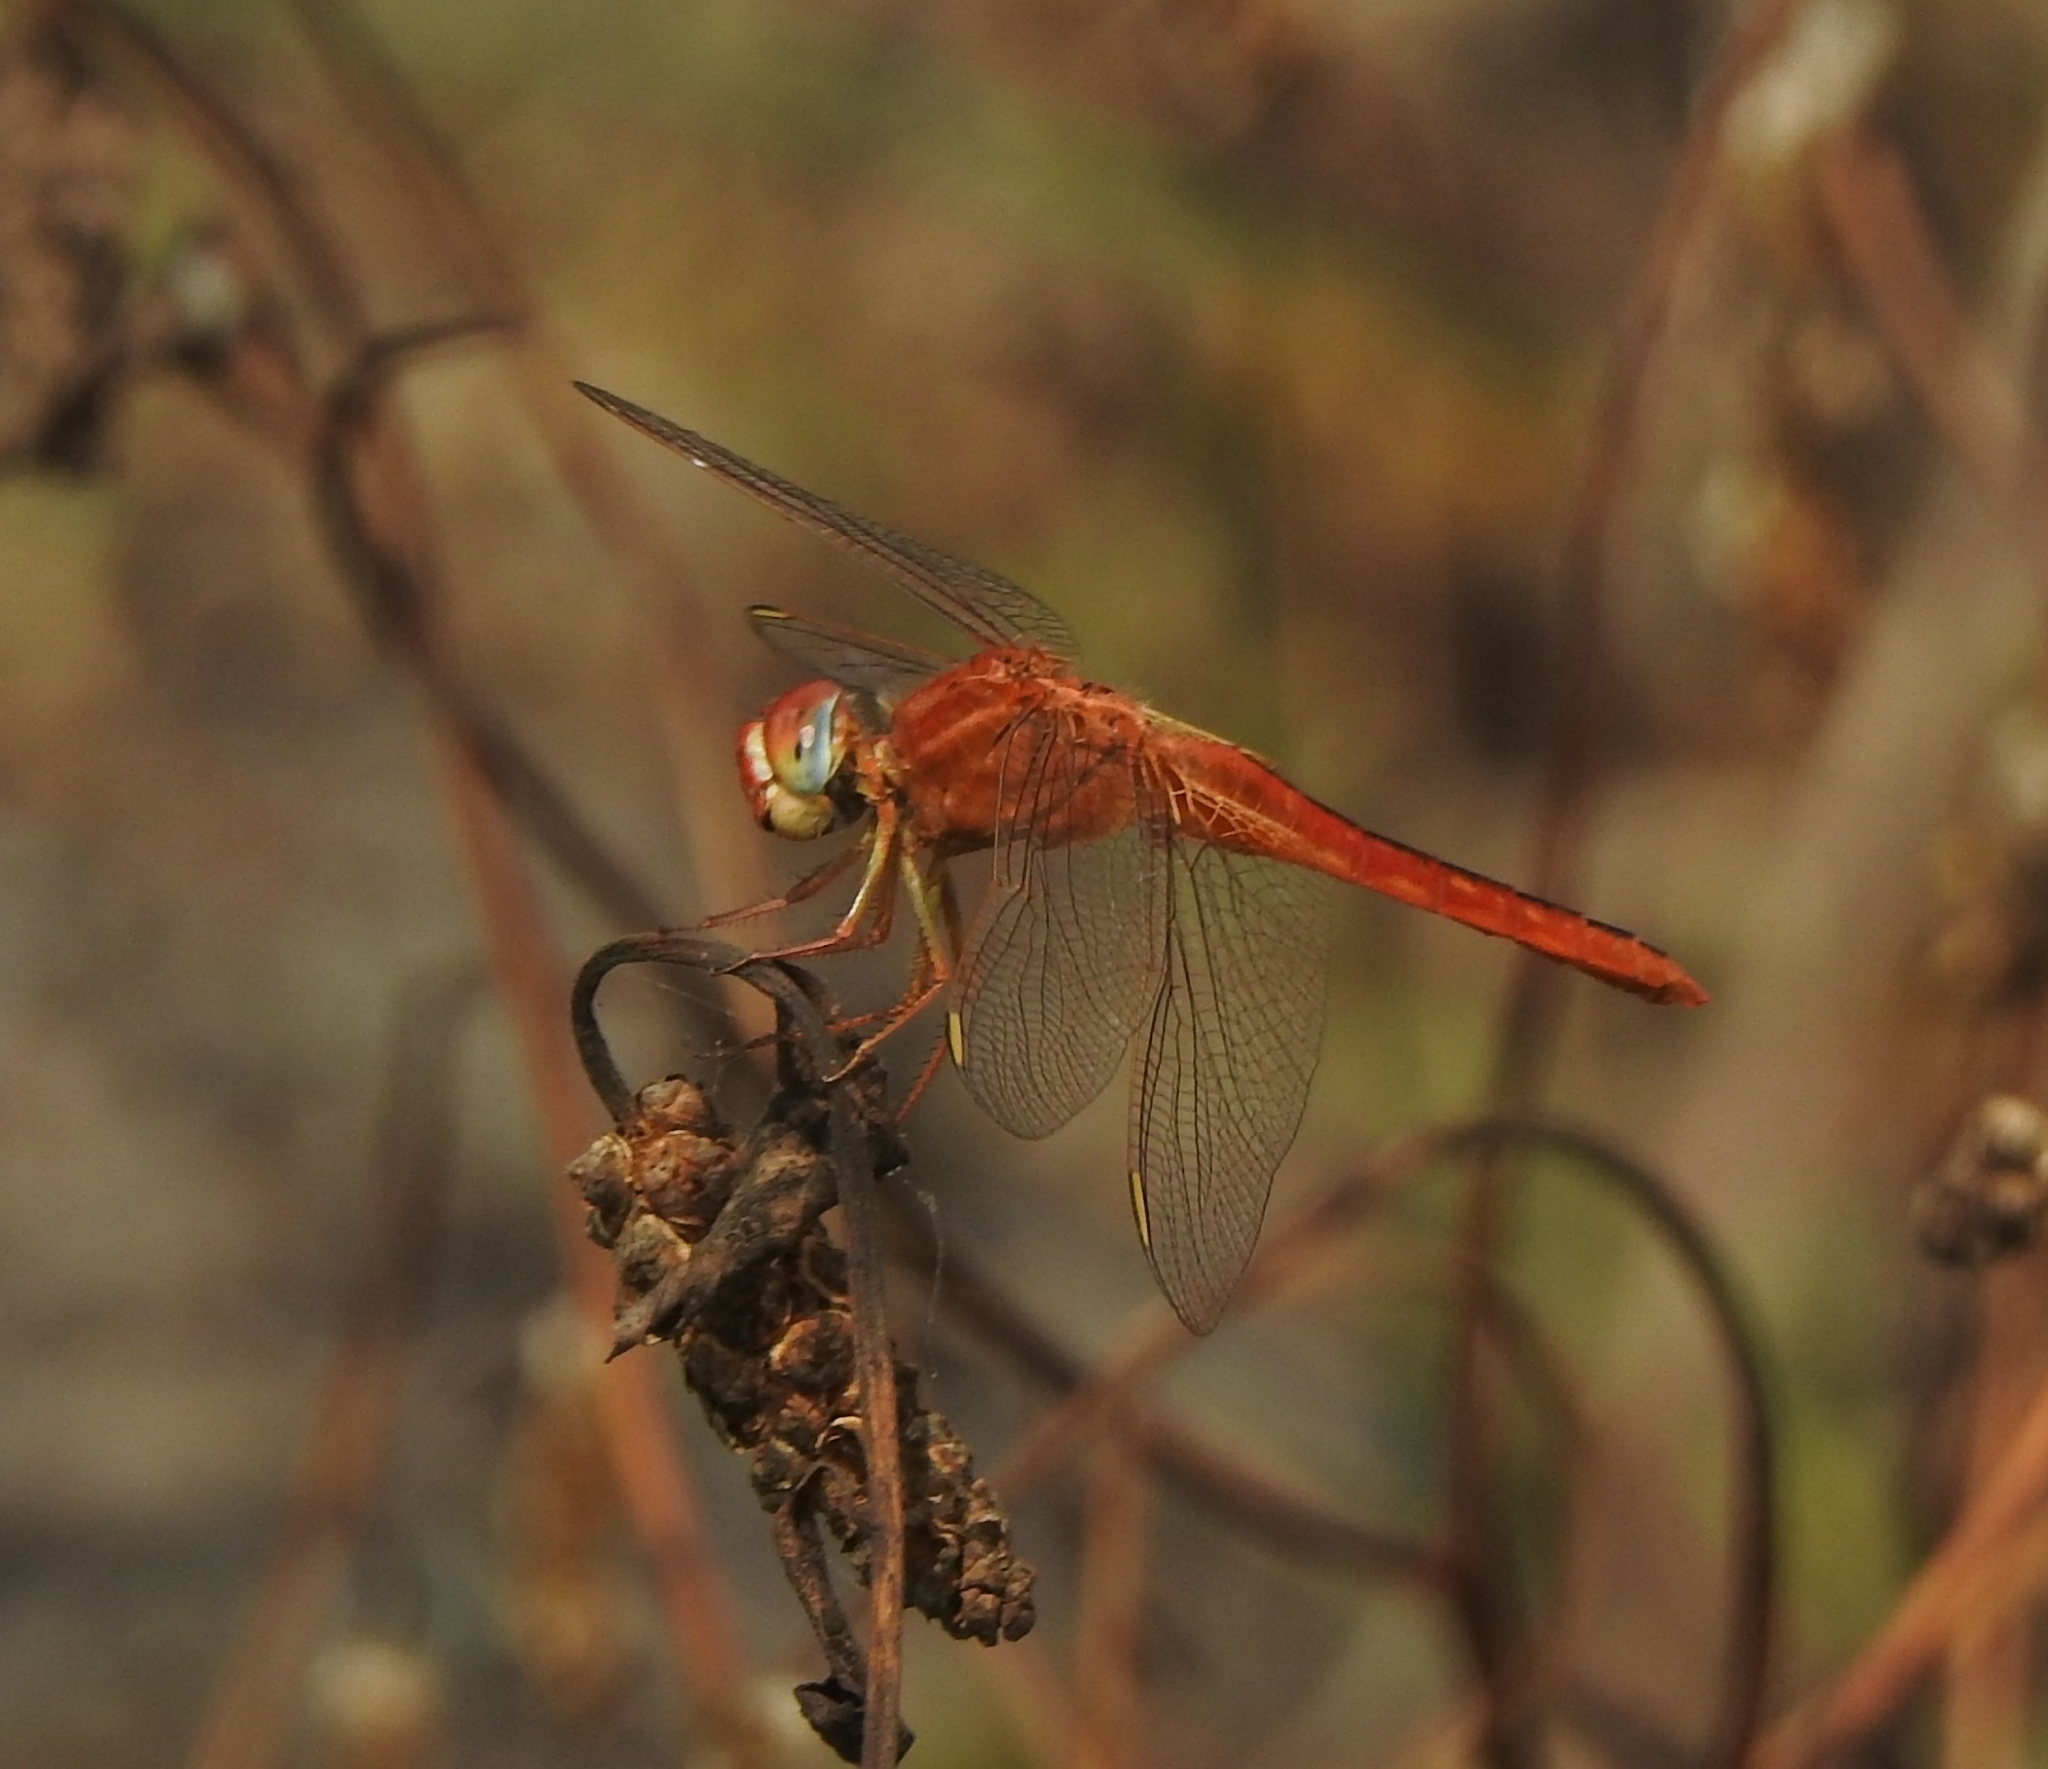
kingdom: Animalia
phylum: Arthropoda
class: Insecta
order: Odonata
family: Libellulidae
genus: Crocothemis
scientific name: Crocothemis servilia
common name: Scarlet skimmer
